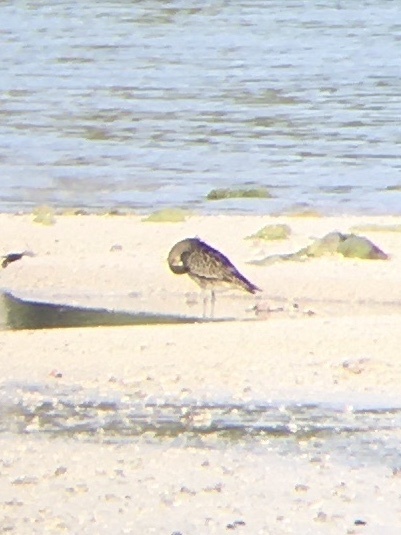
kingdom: Animalia
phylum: Chordata
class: Aves
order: Charadriiformes
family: Charadriidae
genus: Pluvialis
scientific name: Pluvialis fulva
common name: Pacific golden plover
